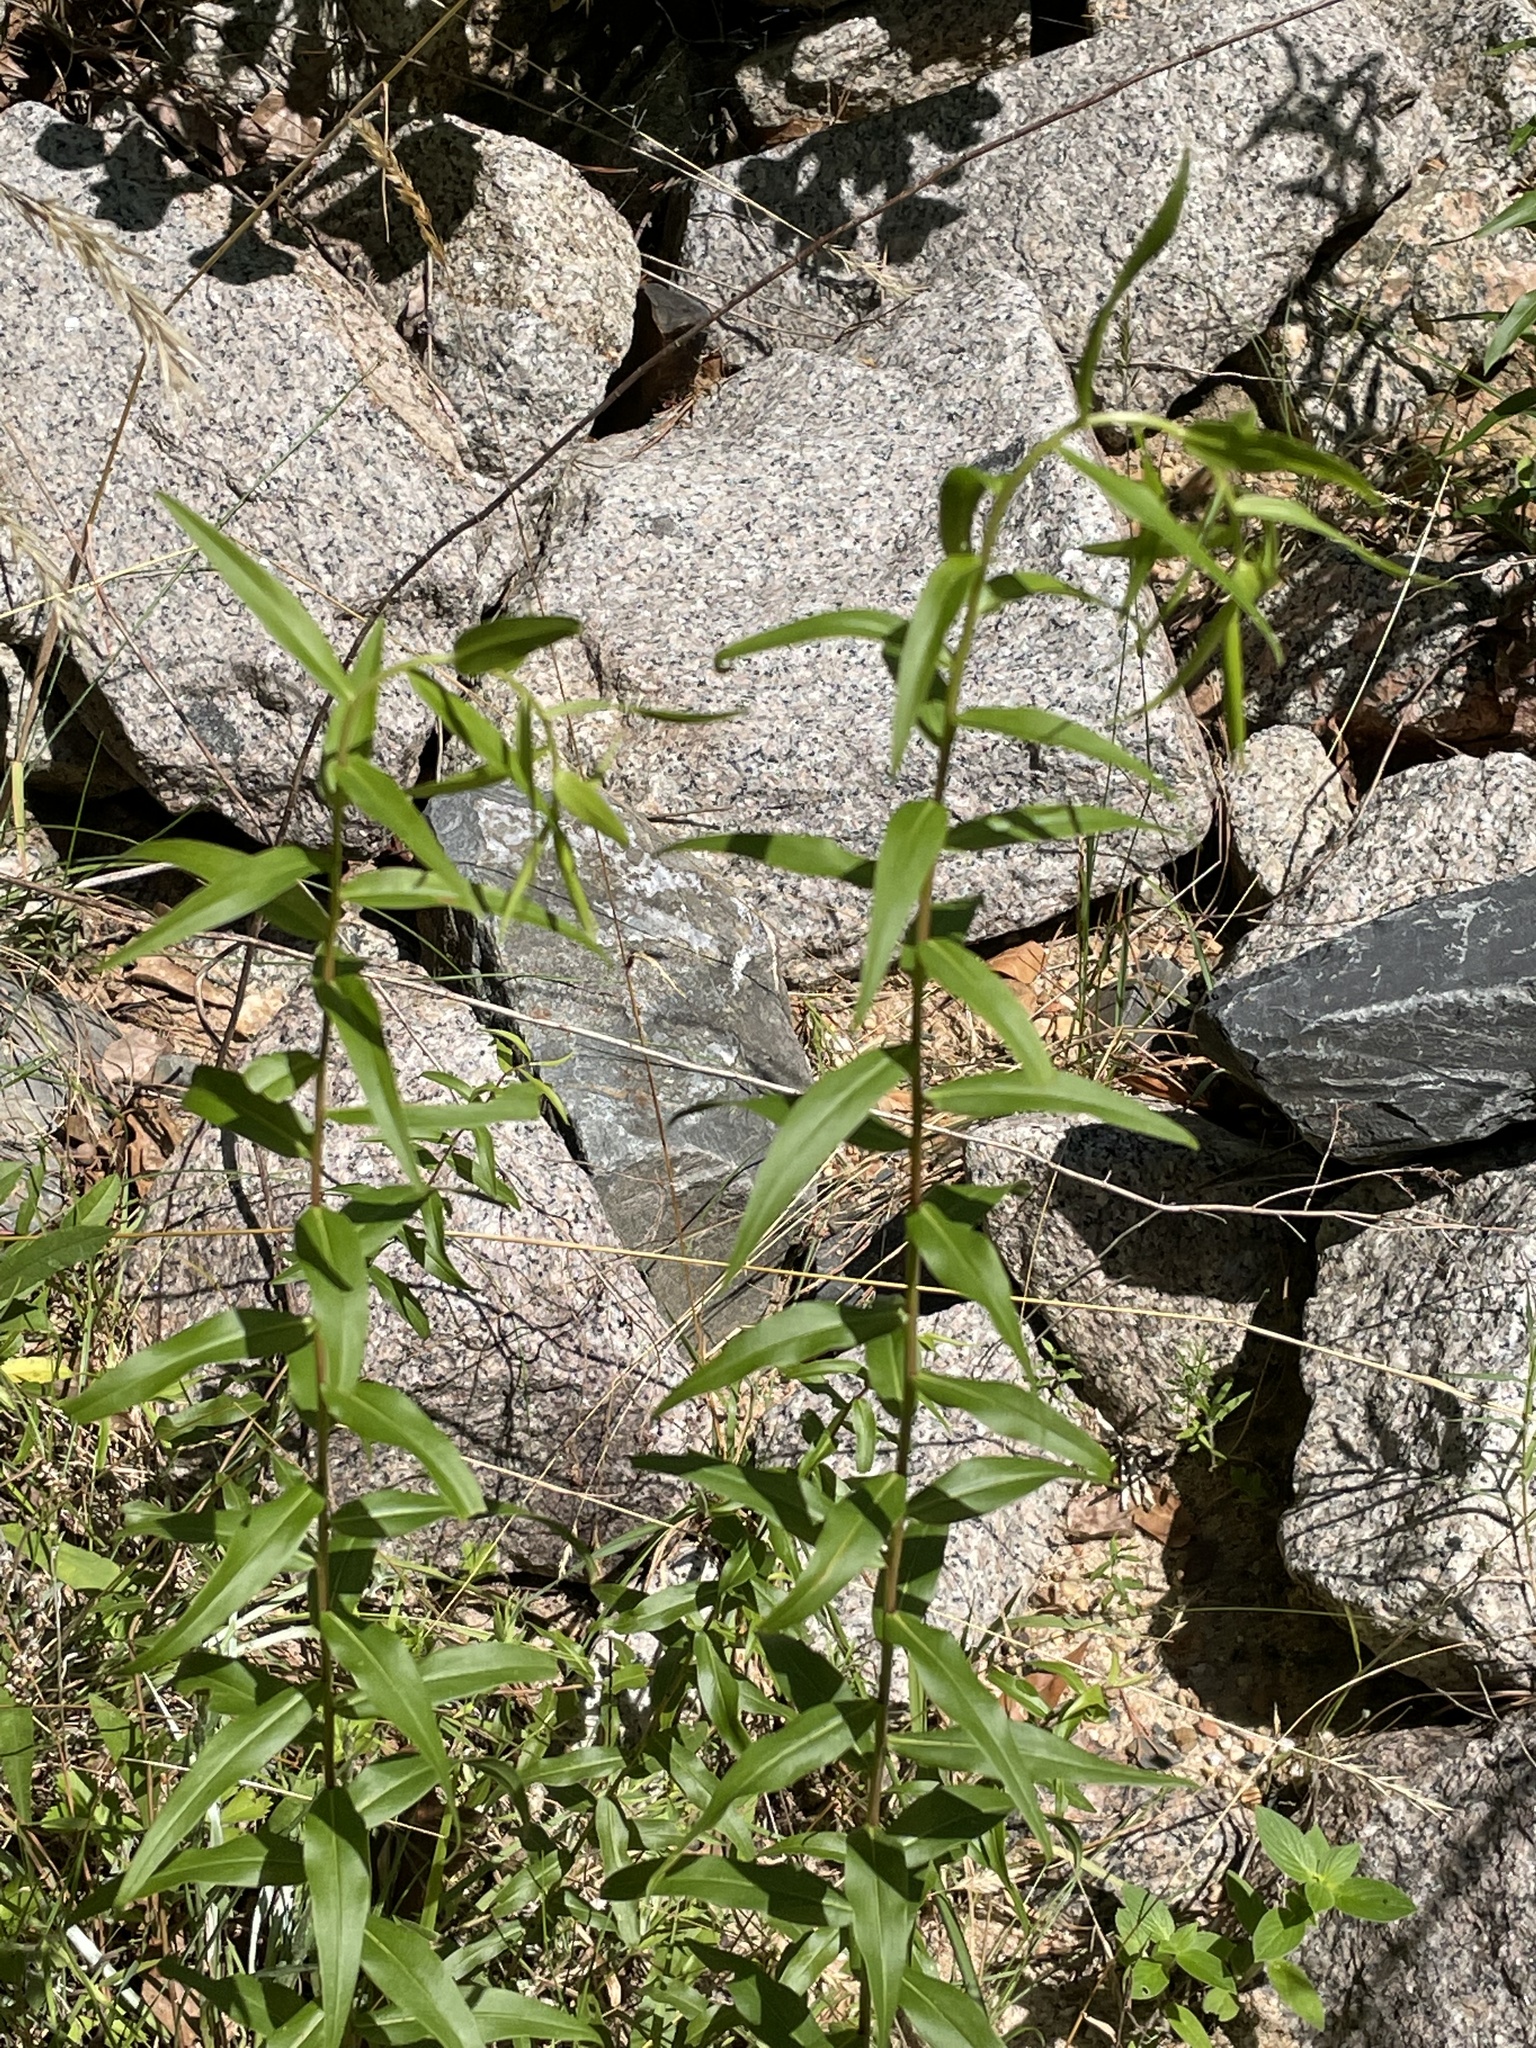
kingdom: Plantae
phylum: Tracheophyta
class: Magnoliopsida
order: Asterales
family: Asteraceae
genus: Solidago
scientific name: Solidago odora
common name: Anise-scented goldenrod
